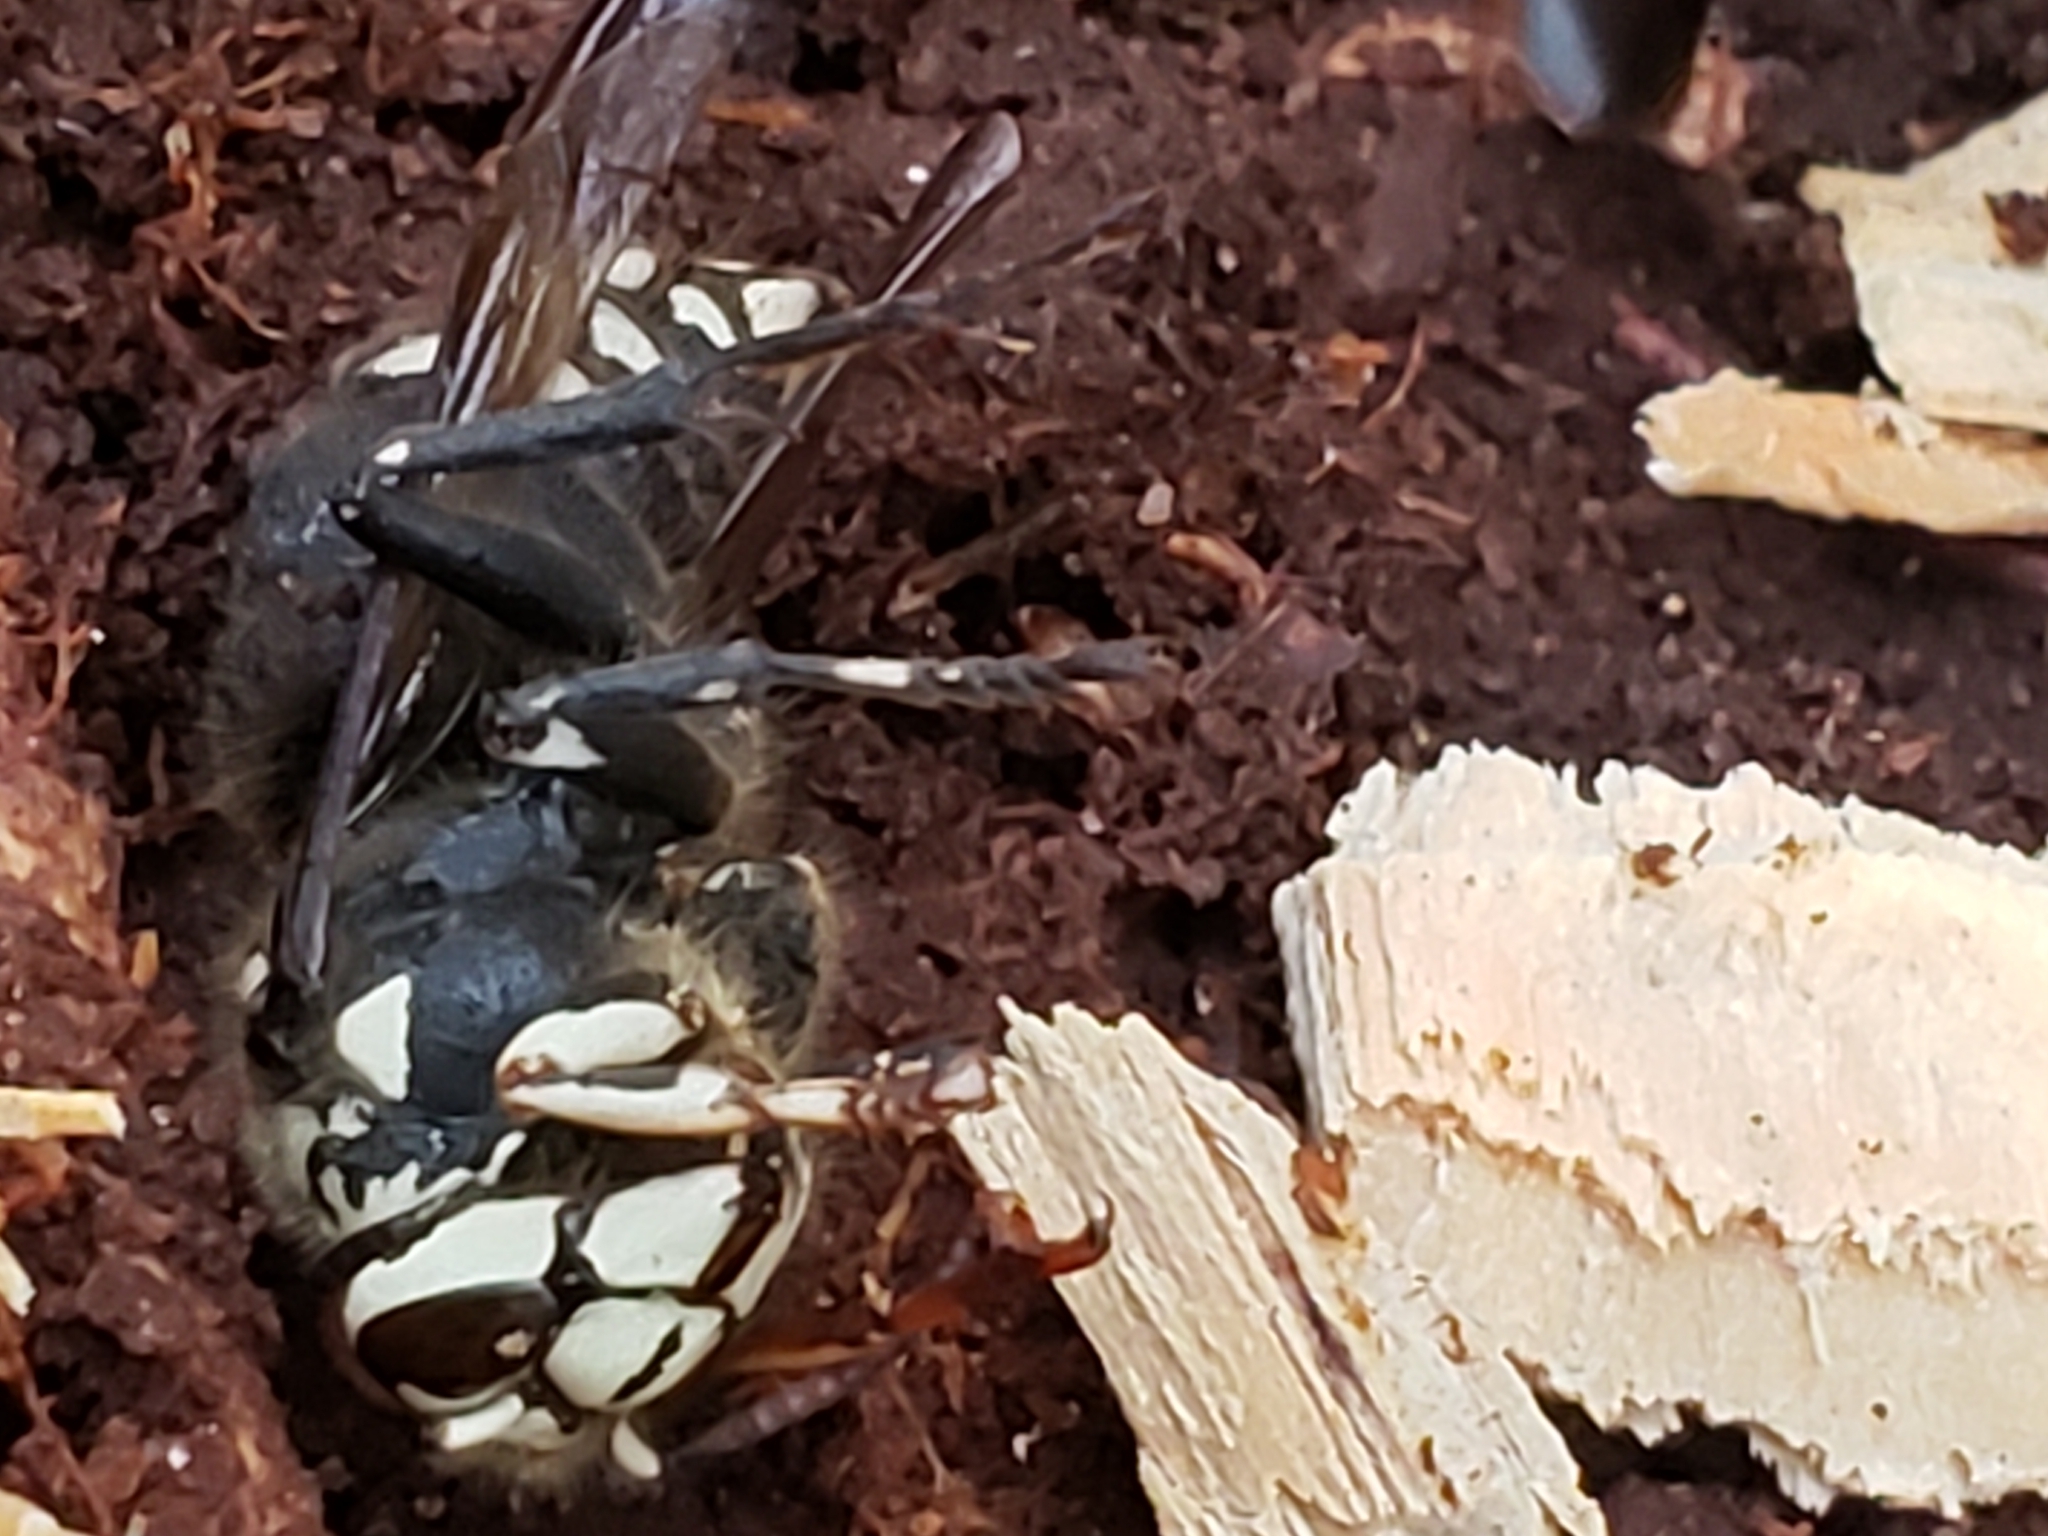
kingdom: Animalia
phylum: Arthropoda
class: Insecta
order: Hymenoptera
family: Vespidae
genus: Dolichovespula
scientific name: Dolichovespula maculata
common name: Bald-faced hornet
